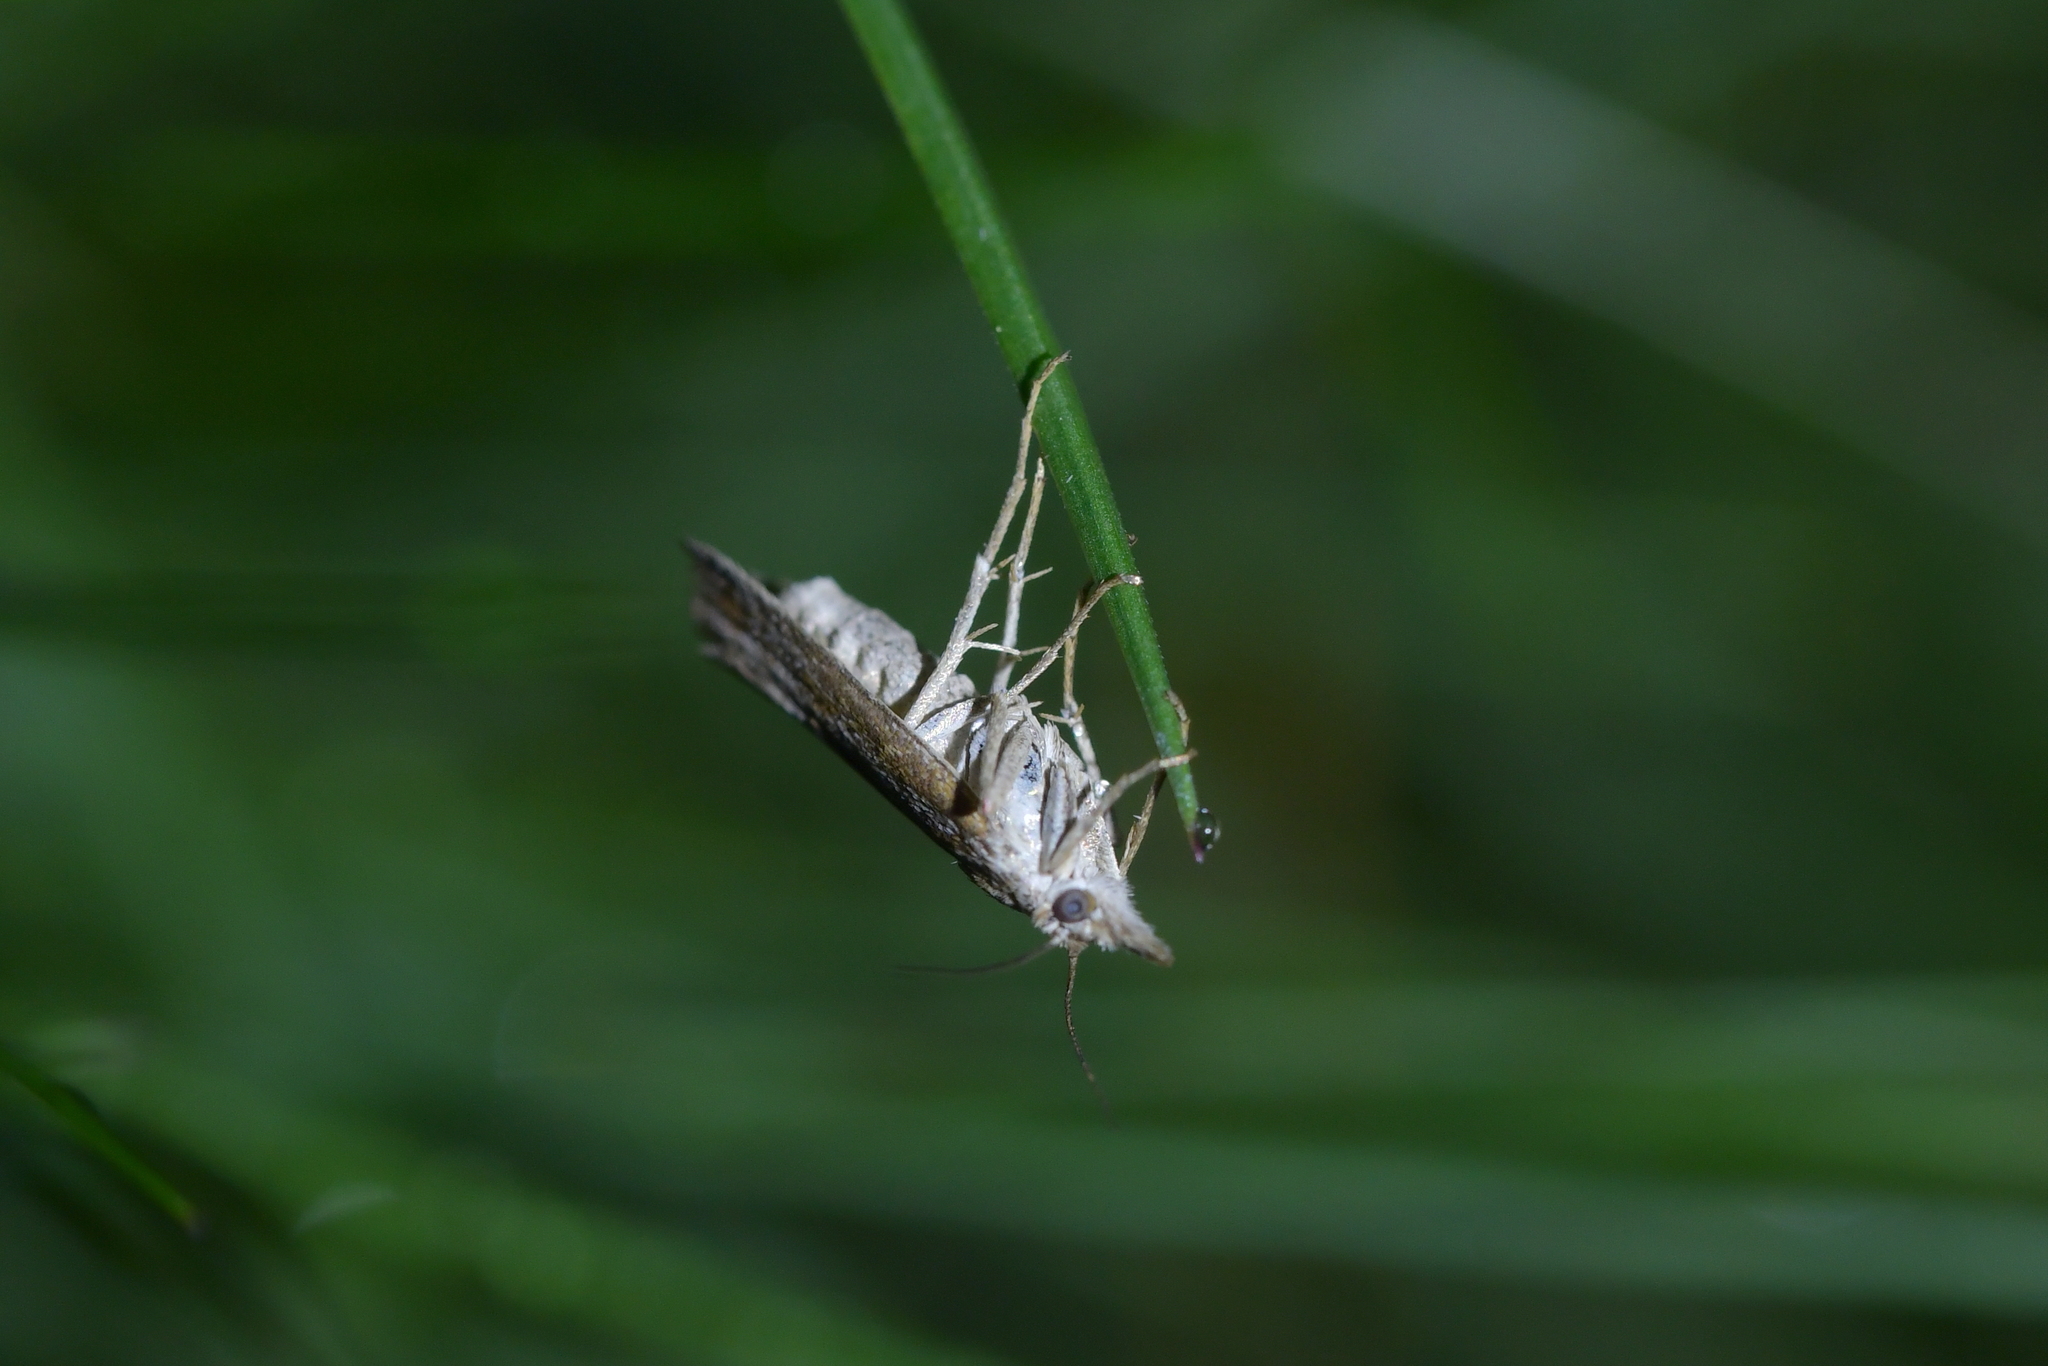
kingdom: Animalia
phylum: Arthropoda
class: Insecta
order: Lepidoptera
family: Crambidae
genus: Orocrambus
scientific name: Orocrambus corruptus
